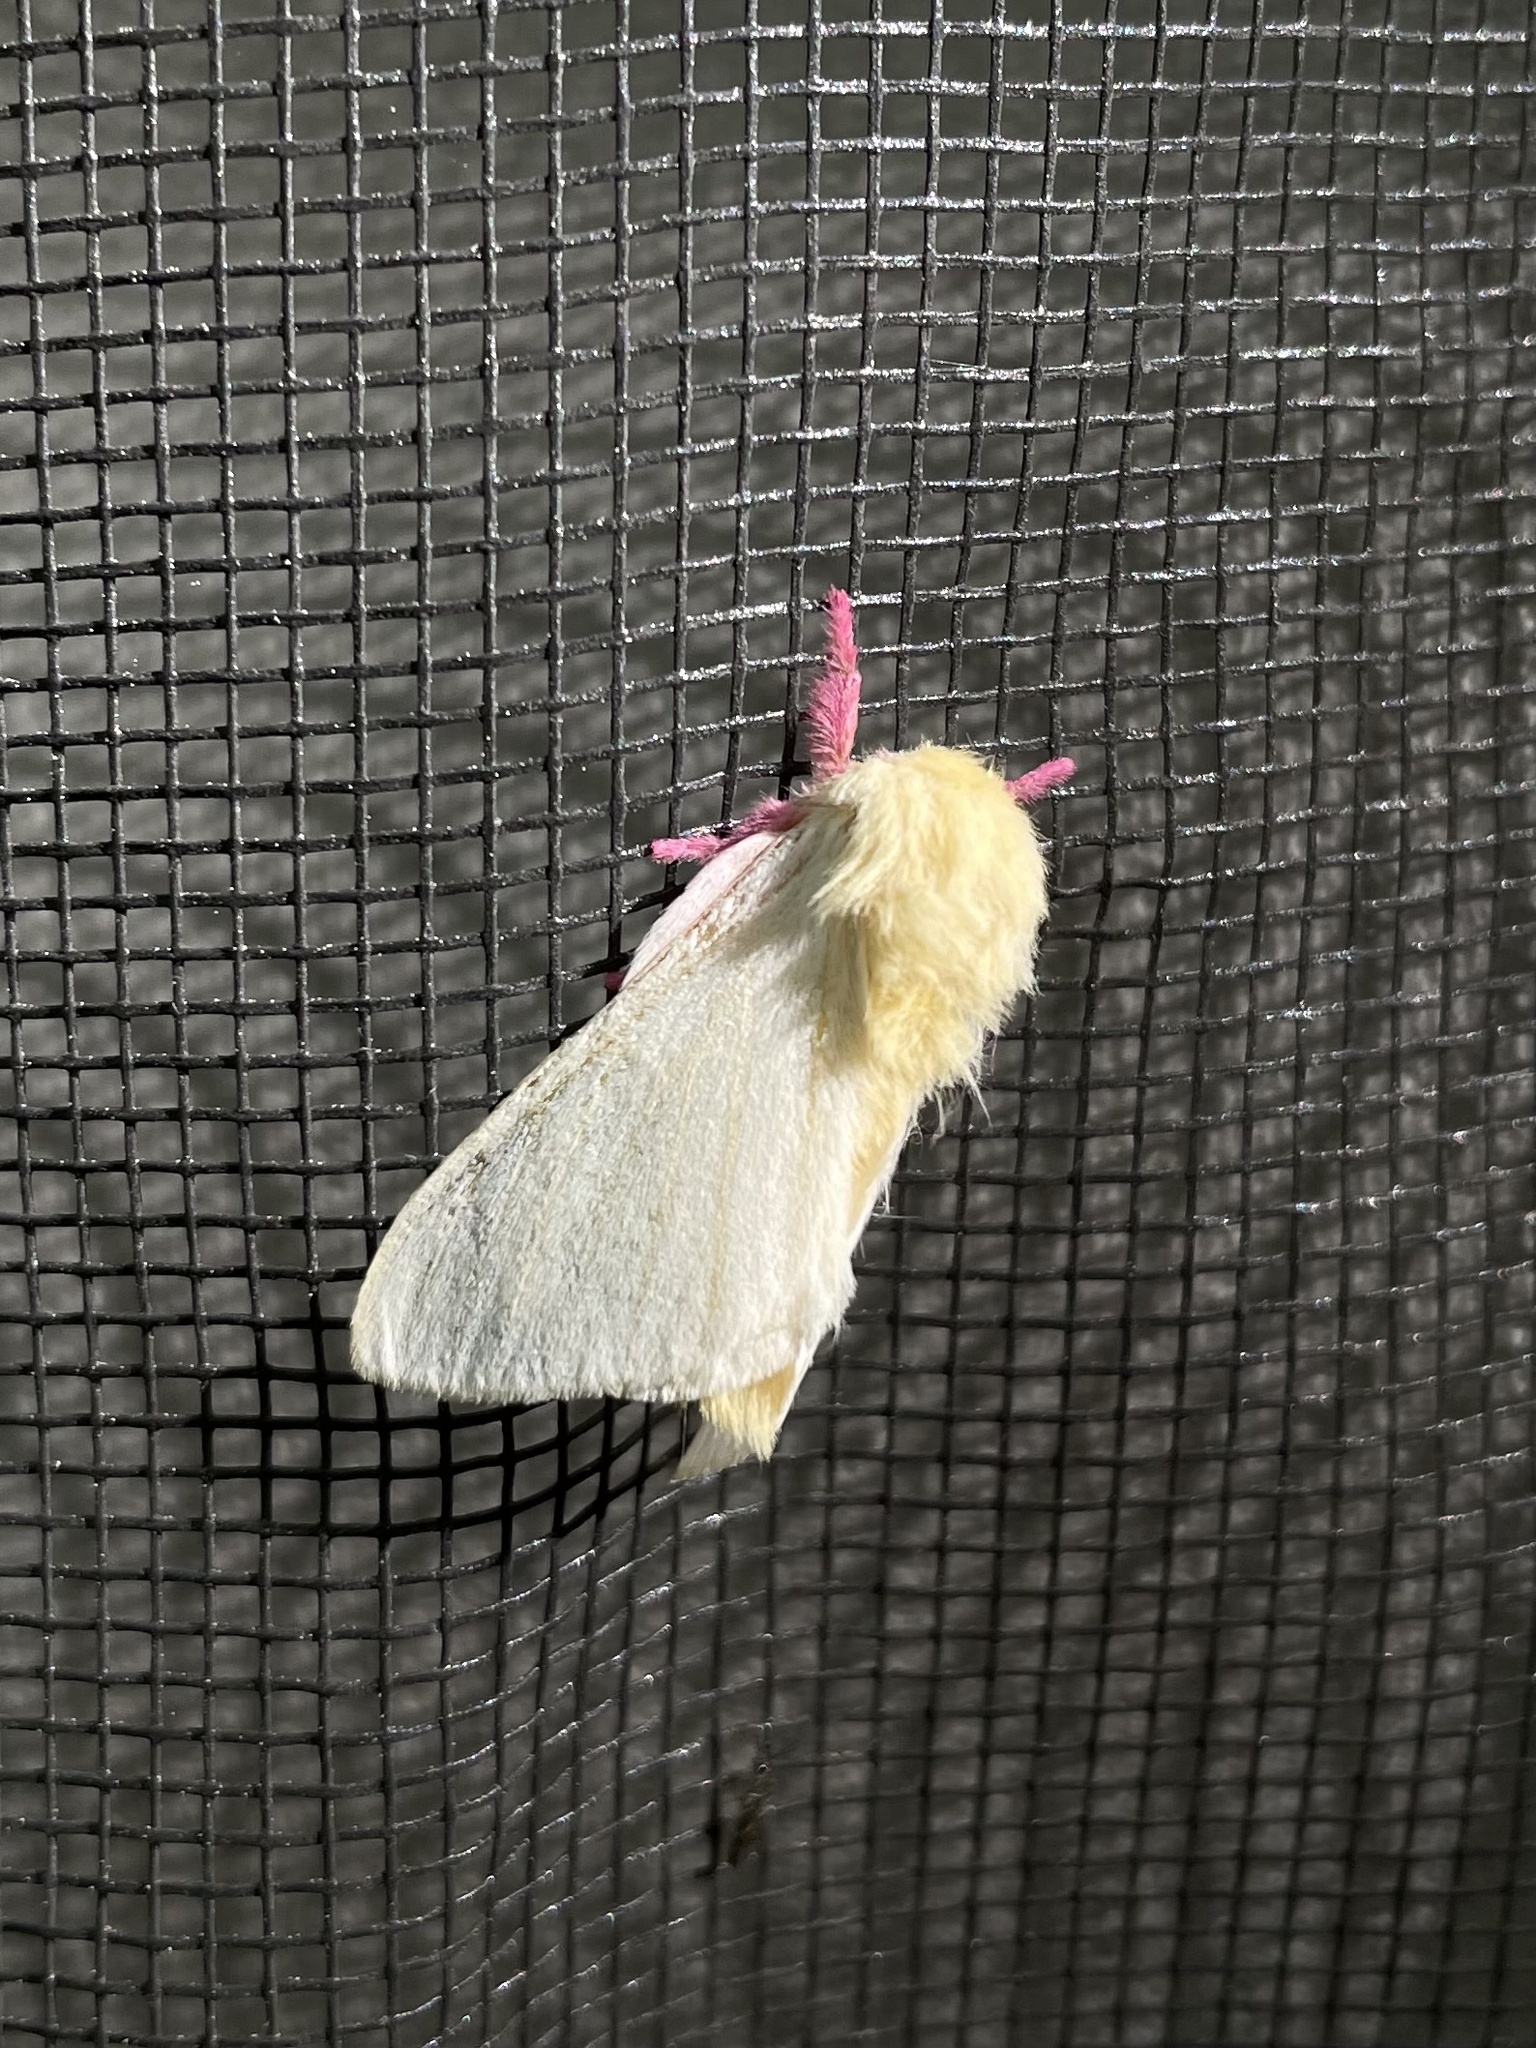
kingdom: Animalia
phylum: Arthropoda
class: Insecta
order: Lepidoptera
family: Saturniidae
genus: Dryocampa
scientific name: Dryocampa rubicunda
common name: Rosy maple moth
